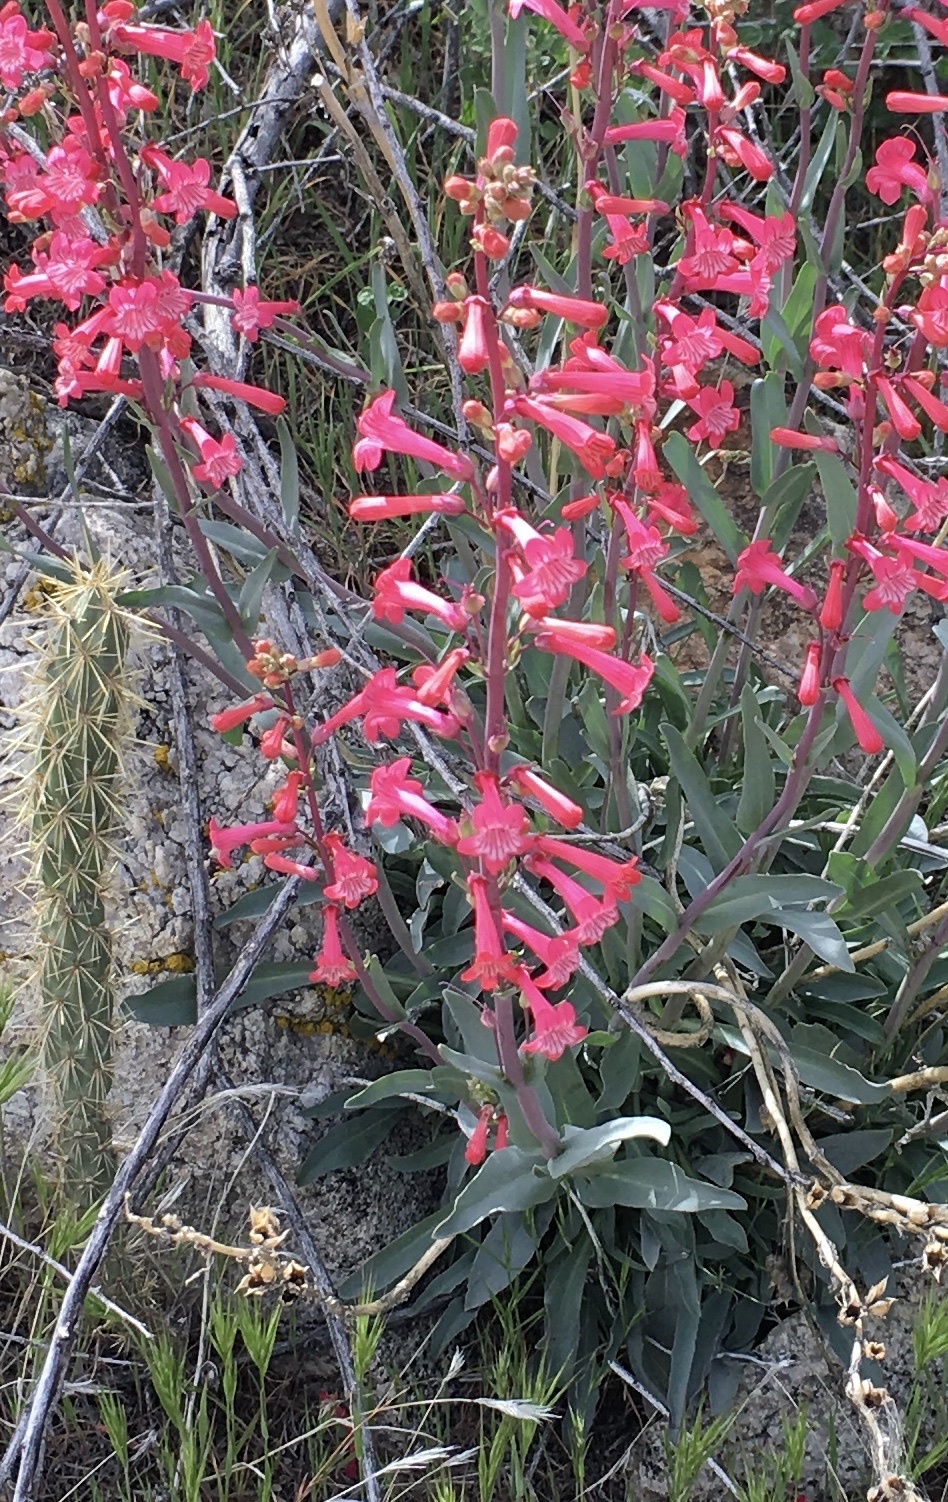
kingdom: Plantae
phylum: Tracheophyta
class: Magnoliopsida
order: Lamiales
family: Plantaginaceae
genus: Penstemon
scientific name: Penstemon utahensis
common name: Utah penstemon
